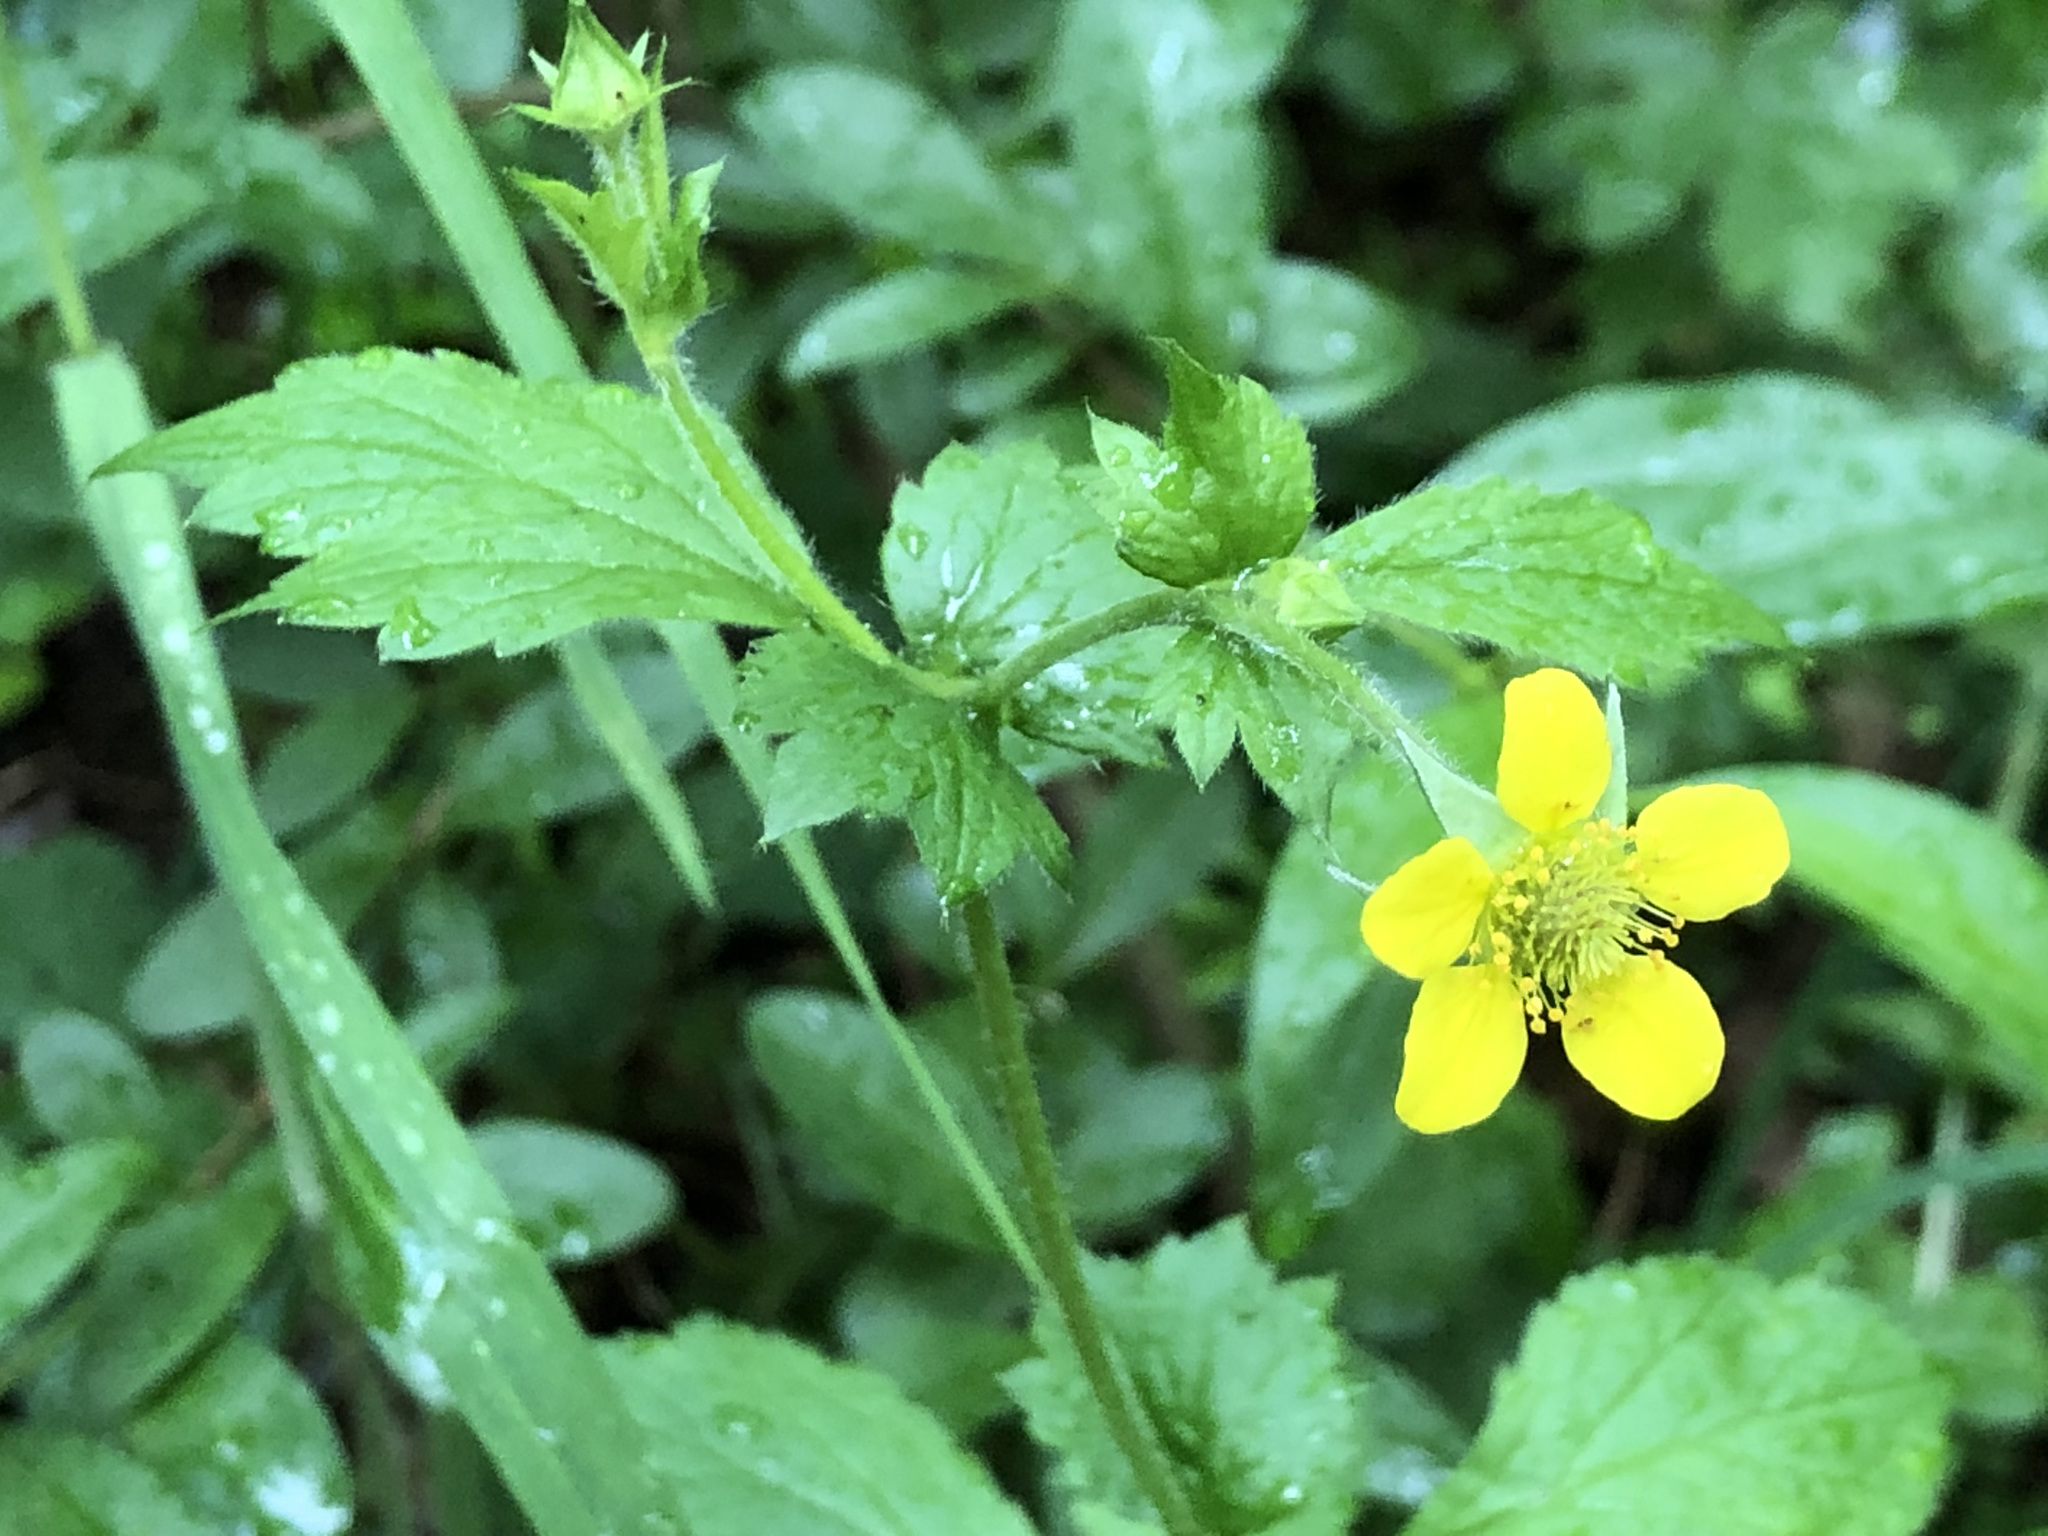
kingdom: Plantae
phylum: Tracheophyta
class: Magnoliopsida
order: Rosales
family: Rosaceae
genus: Geum
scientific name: Geum urbanum
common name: Wood avens
